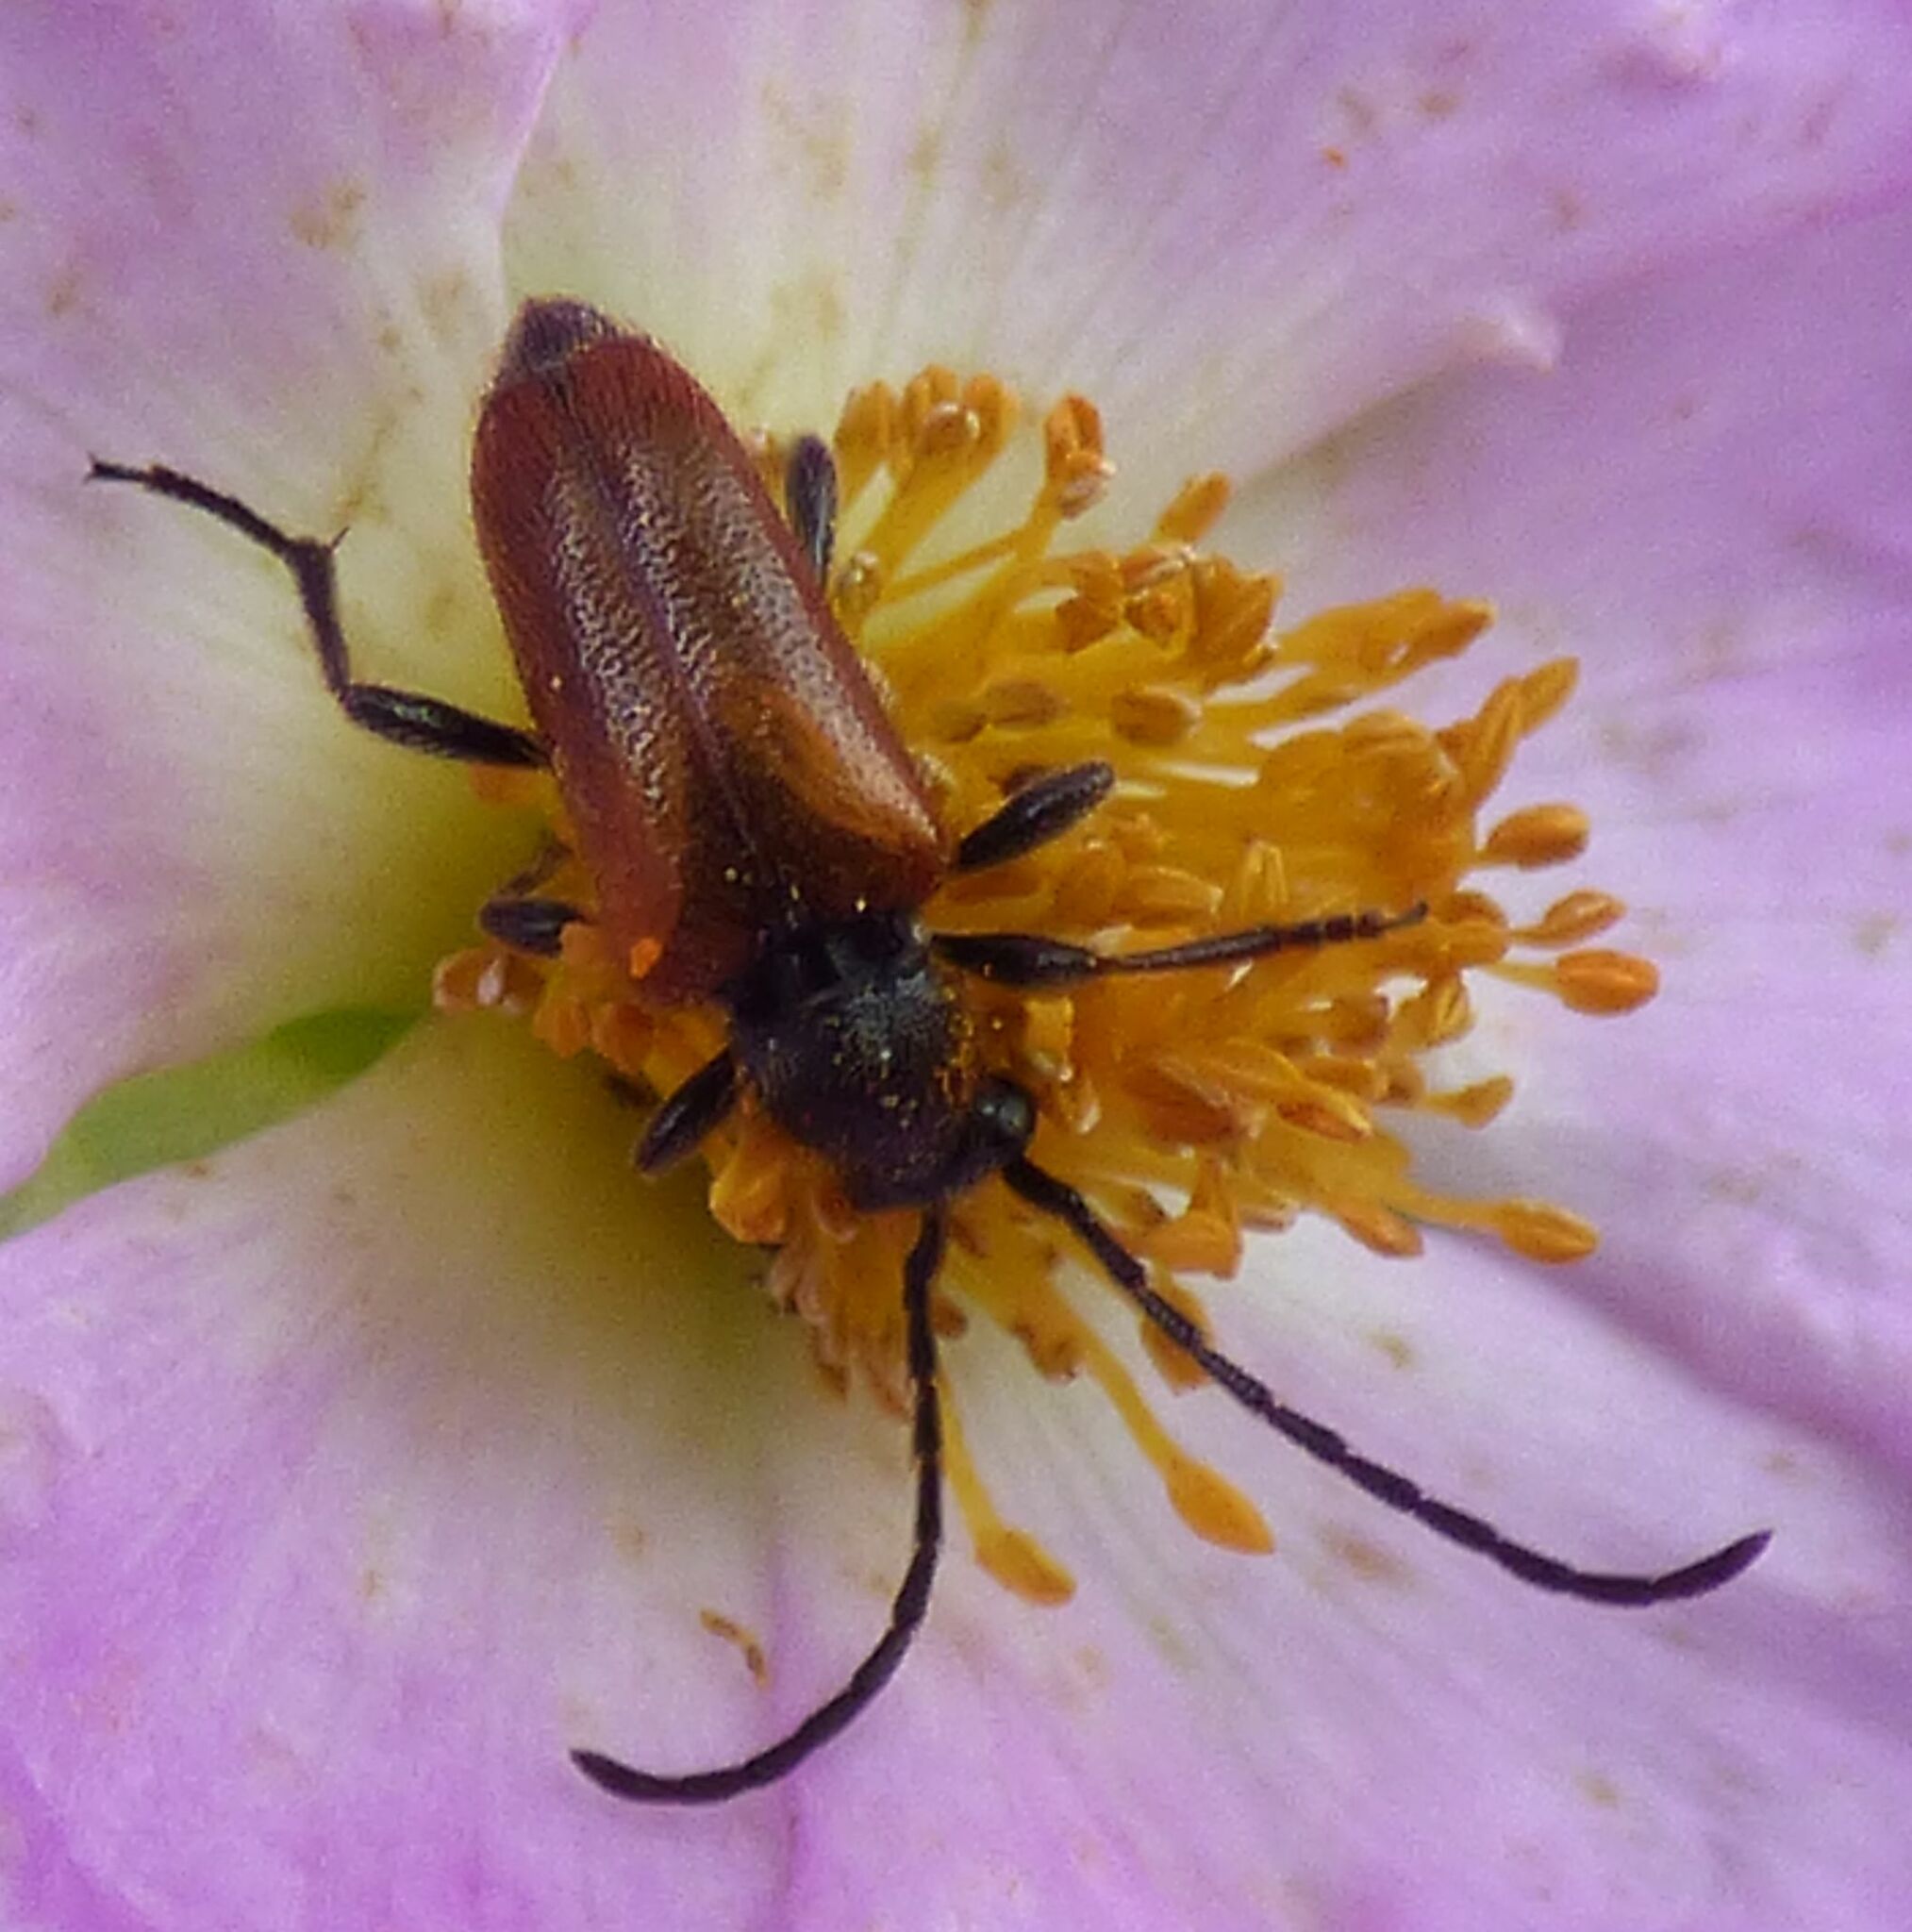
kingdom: Animalia
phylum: Arthropoda
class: Insecta
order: Coleoptera
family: Cerambycidae
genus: Pseudovadonia
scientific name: Pseudovadonia livida
